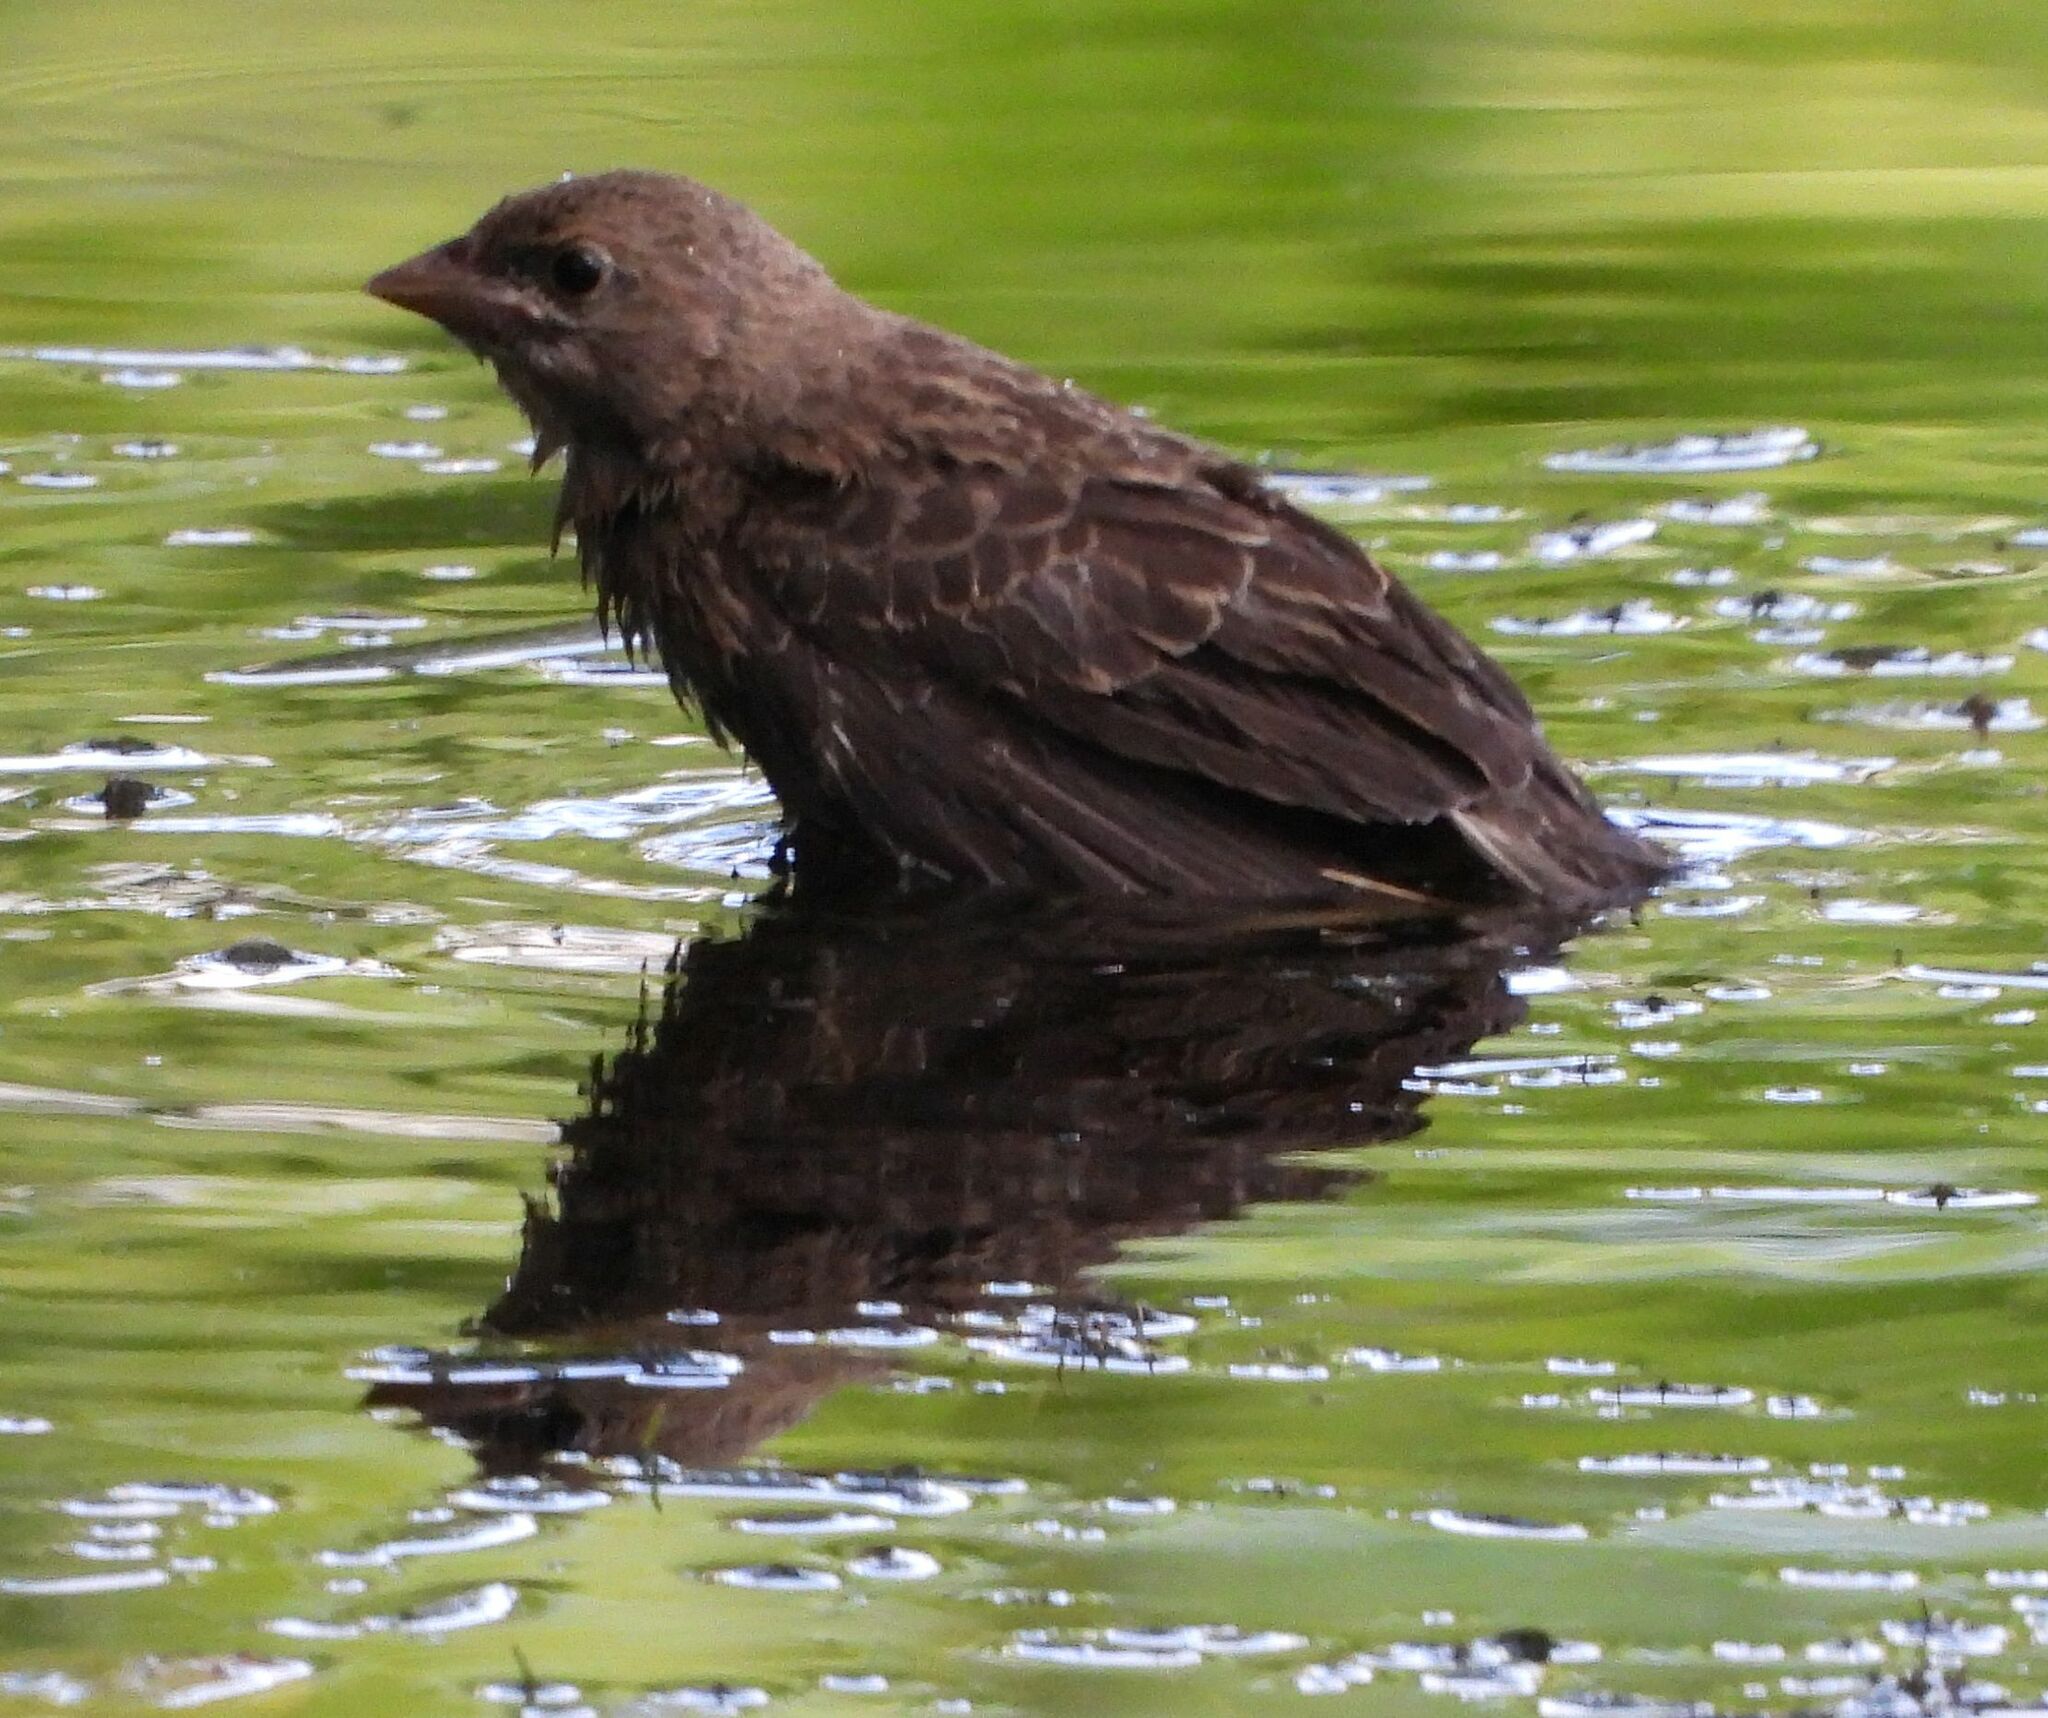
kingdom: Animalia
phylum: Chordata
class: Aves
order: Passeriformes
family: Icteridae
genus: Molothrus
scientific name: Molothrus ater
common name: Brown-headed cowbird
